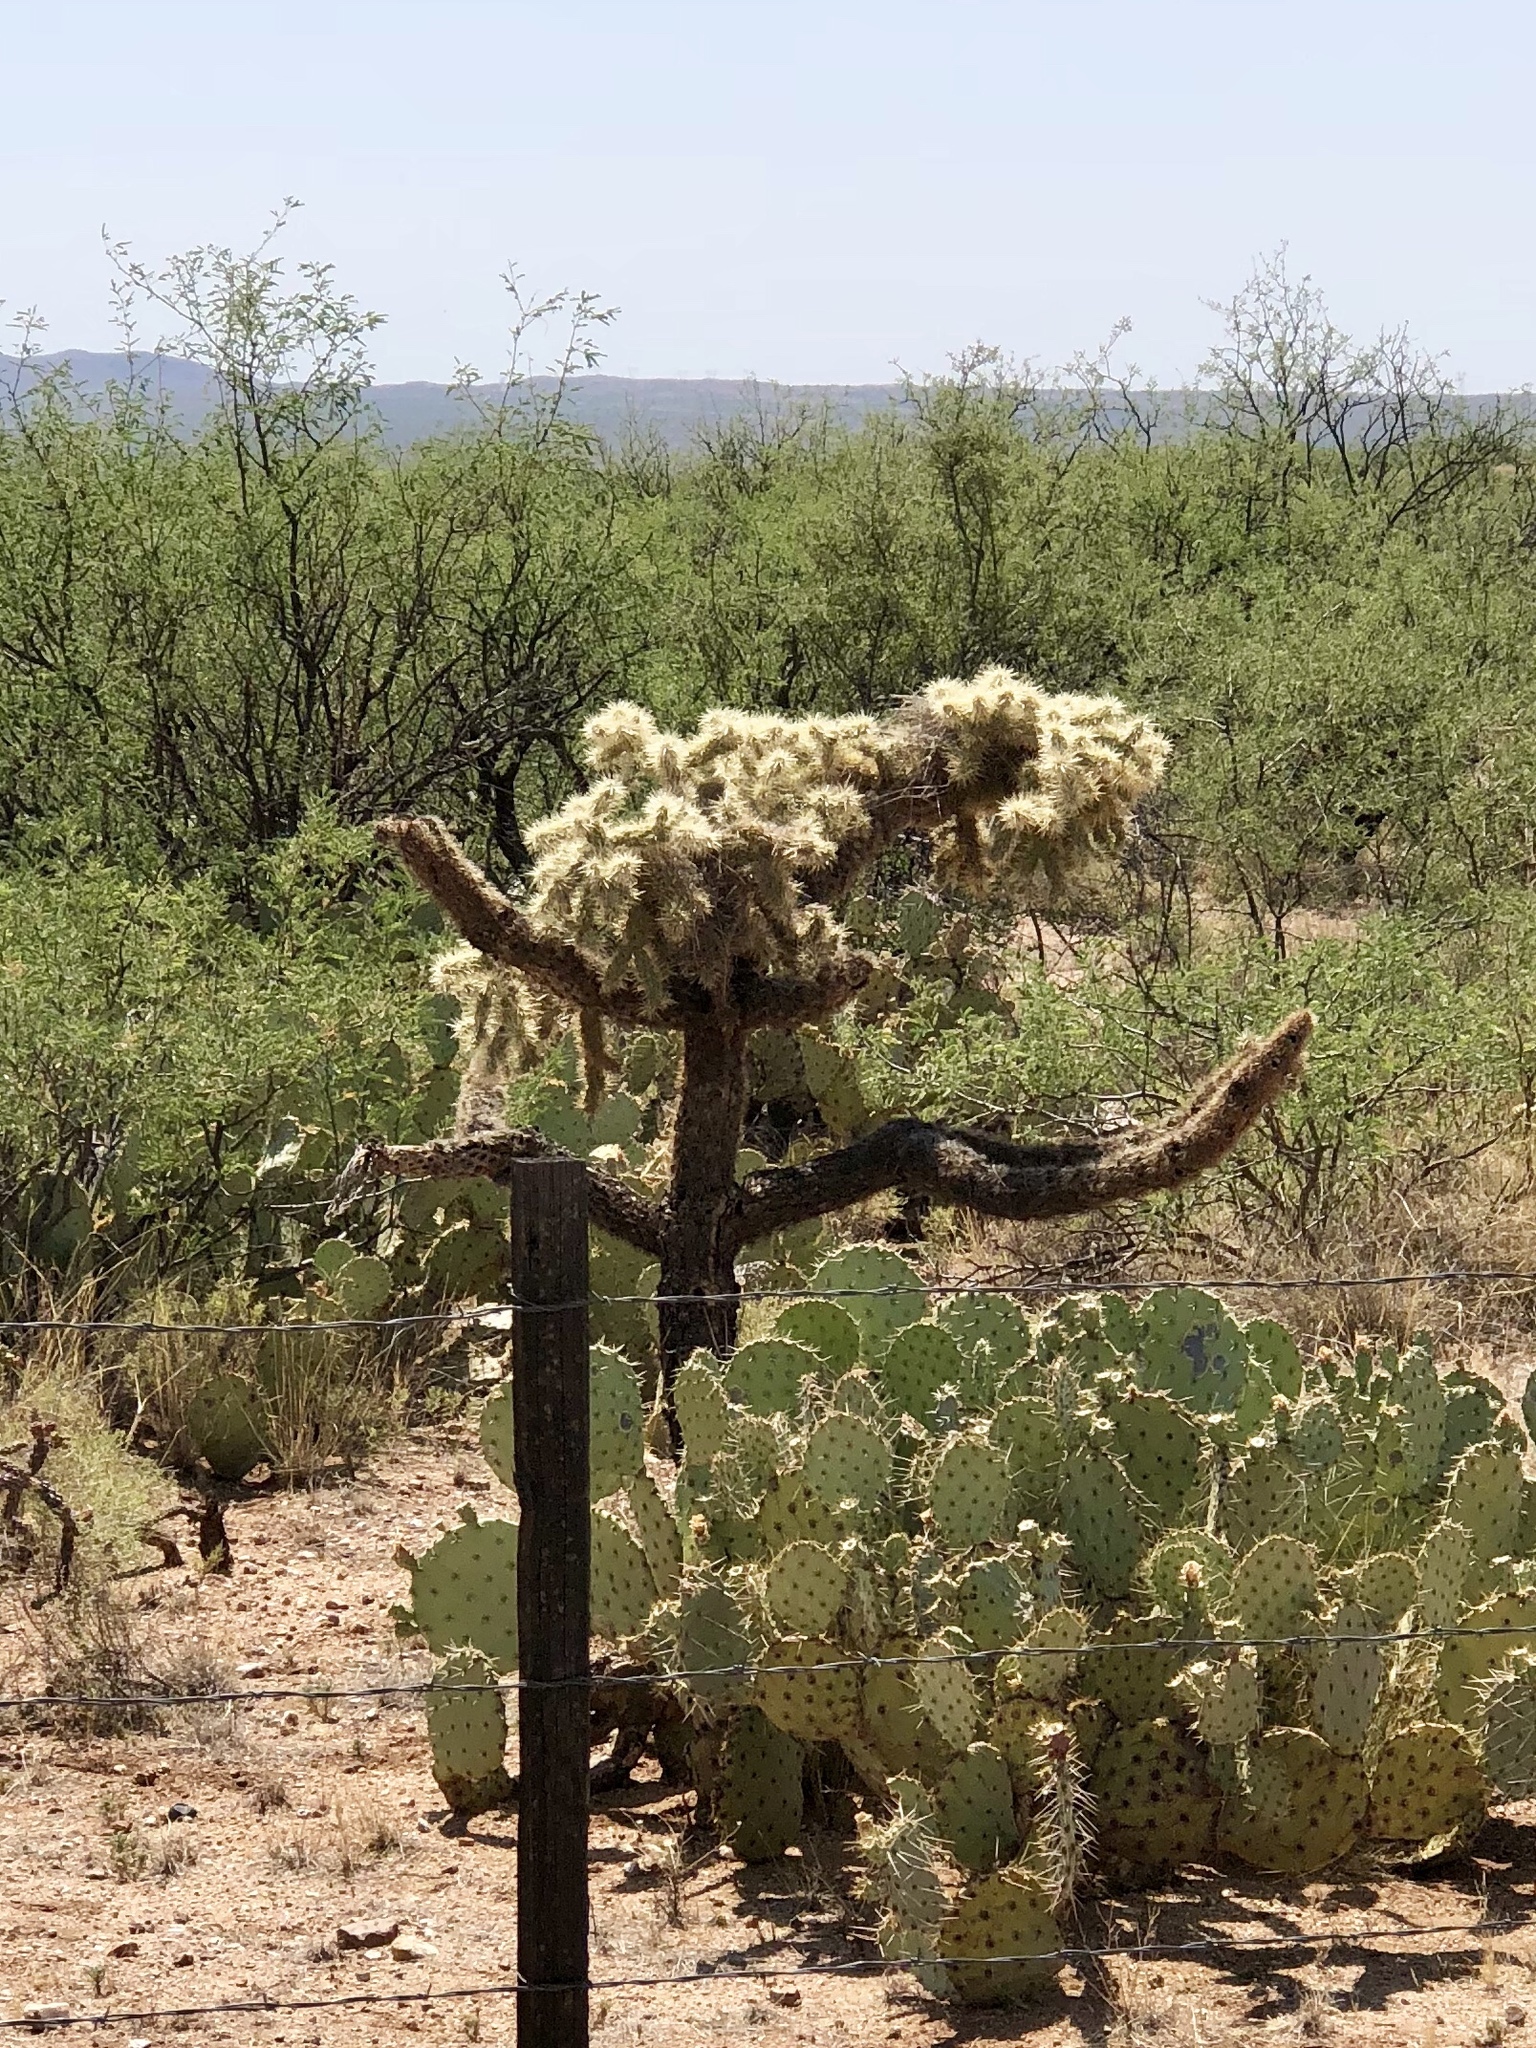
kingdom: Plantae
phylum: Tracheophyta
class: Magnoliopsida
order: Caryophyllales
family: Cactaceae
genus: Cylindropuntia
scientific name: Cylindropuntia fulgida
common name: Jumping cholla
